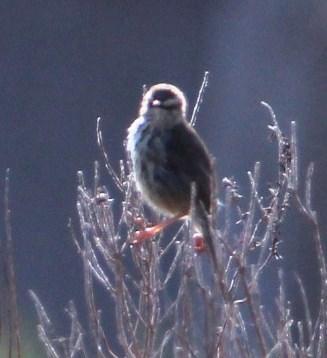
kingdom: Animalia
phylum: Chordata
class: Aves
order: Passeriformes
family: Cisticolidae
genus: Prinia
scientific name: Prinia maculosa
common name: Karoo prinia
